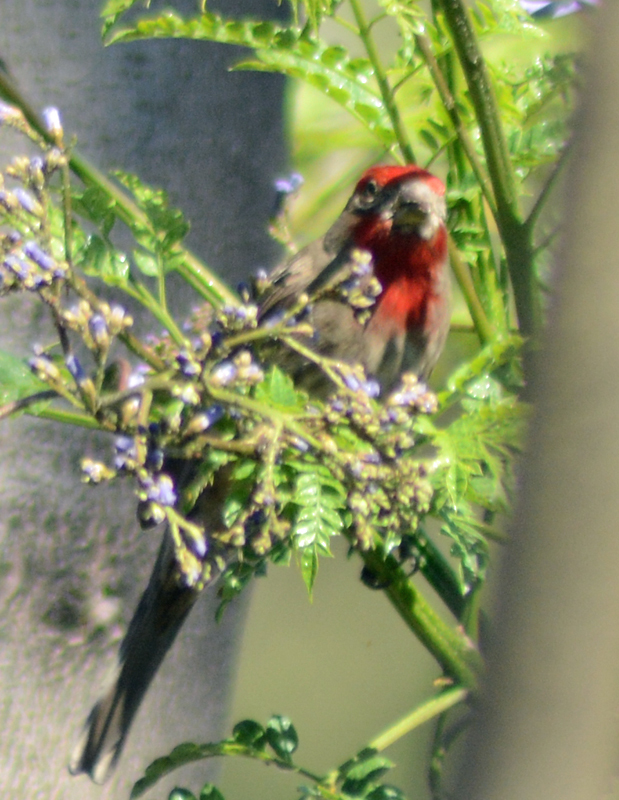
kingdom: Animalia
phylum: Chordata
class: Aves
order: Passeriformes
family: Fringillidae
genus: Haemorhous
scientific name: Haemorhous mexicanus
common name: House finch
